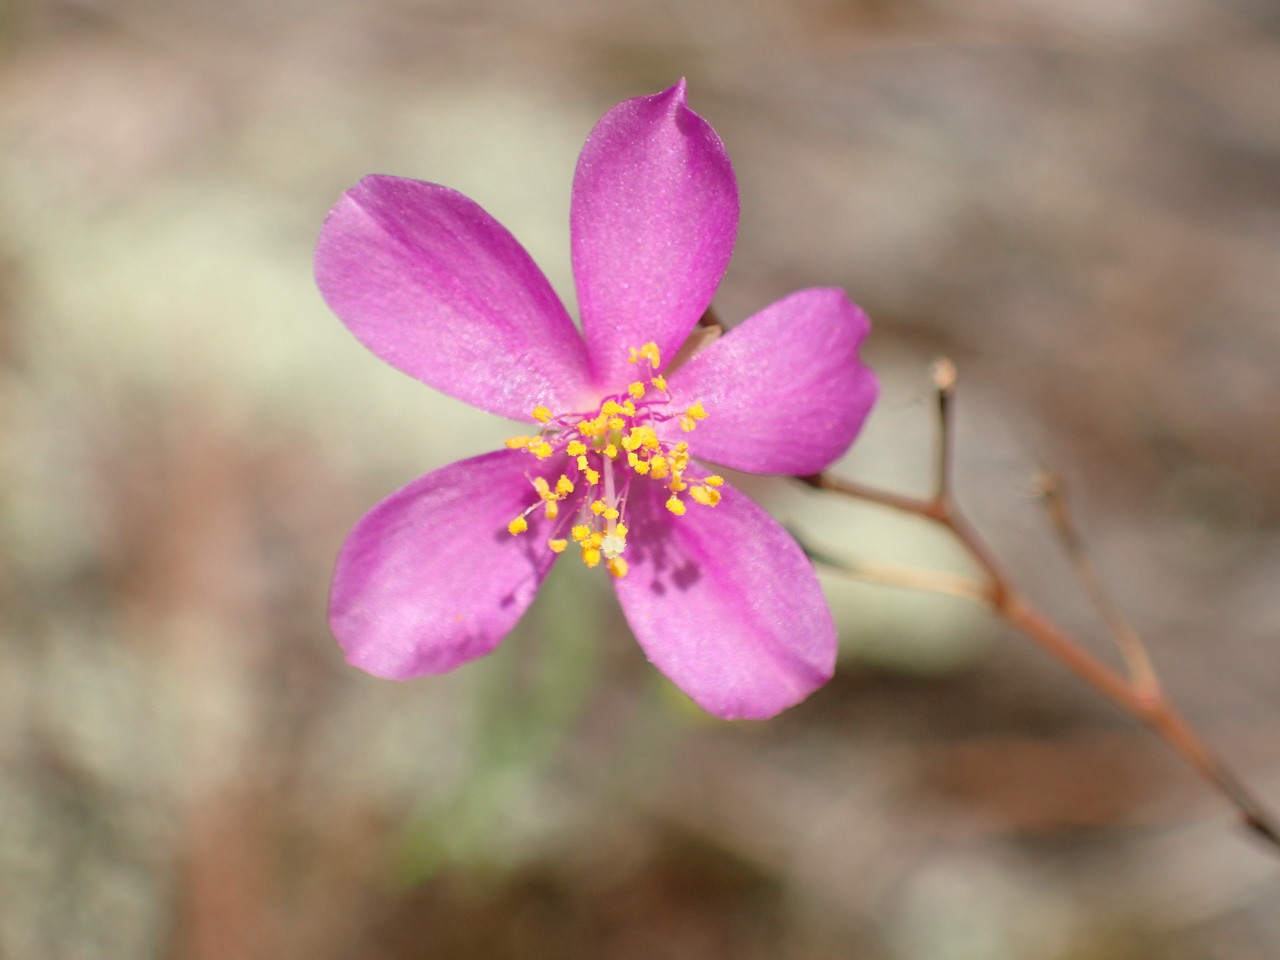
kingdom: Plantae
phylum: Tracheophyta
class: Magnoliopsida
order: Caryophyllales
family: Montiaceae
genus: Phemeranthus
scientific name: Phemeranthus mengesii
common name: Menges' fameflower
